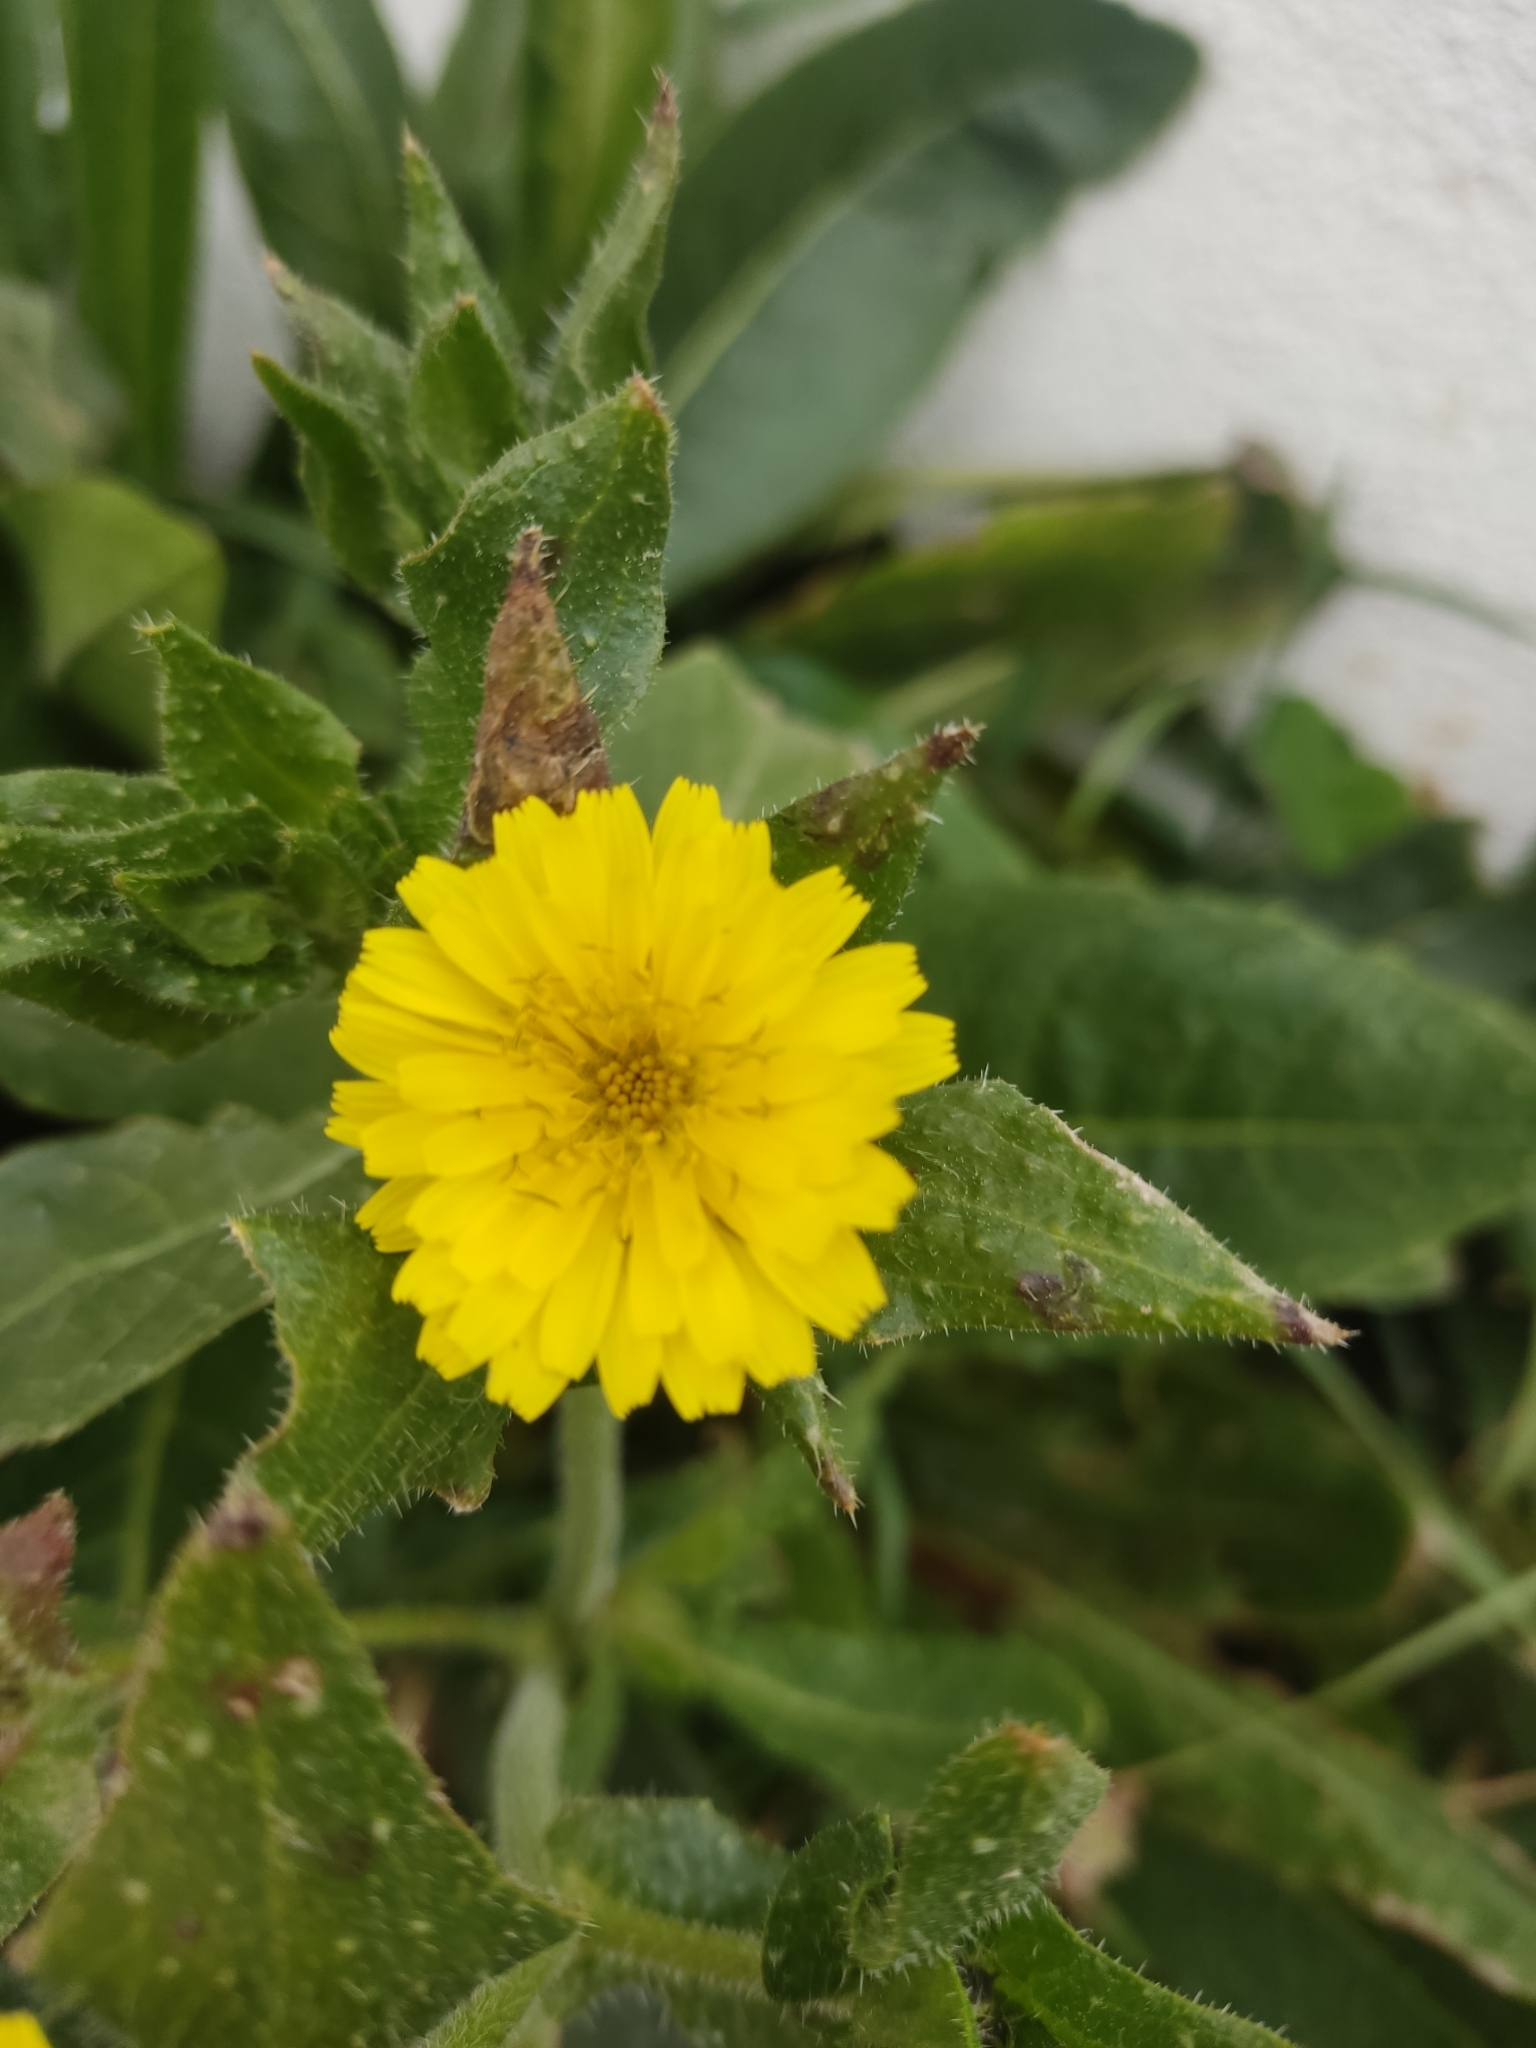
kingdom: Plantae
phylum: Tracheophyta
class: Magnoliopsida
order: Asterales
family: Asteraceae
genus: Helminthotheca
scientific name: Helminthotheca echioides
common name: Ox-tongue
